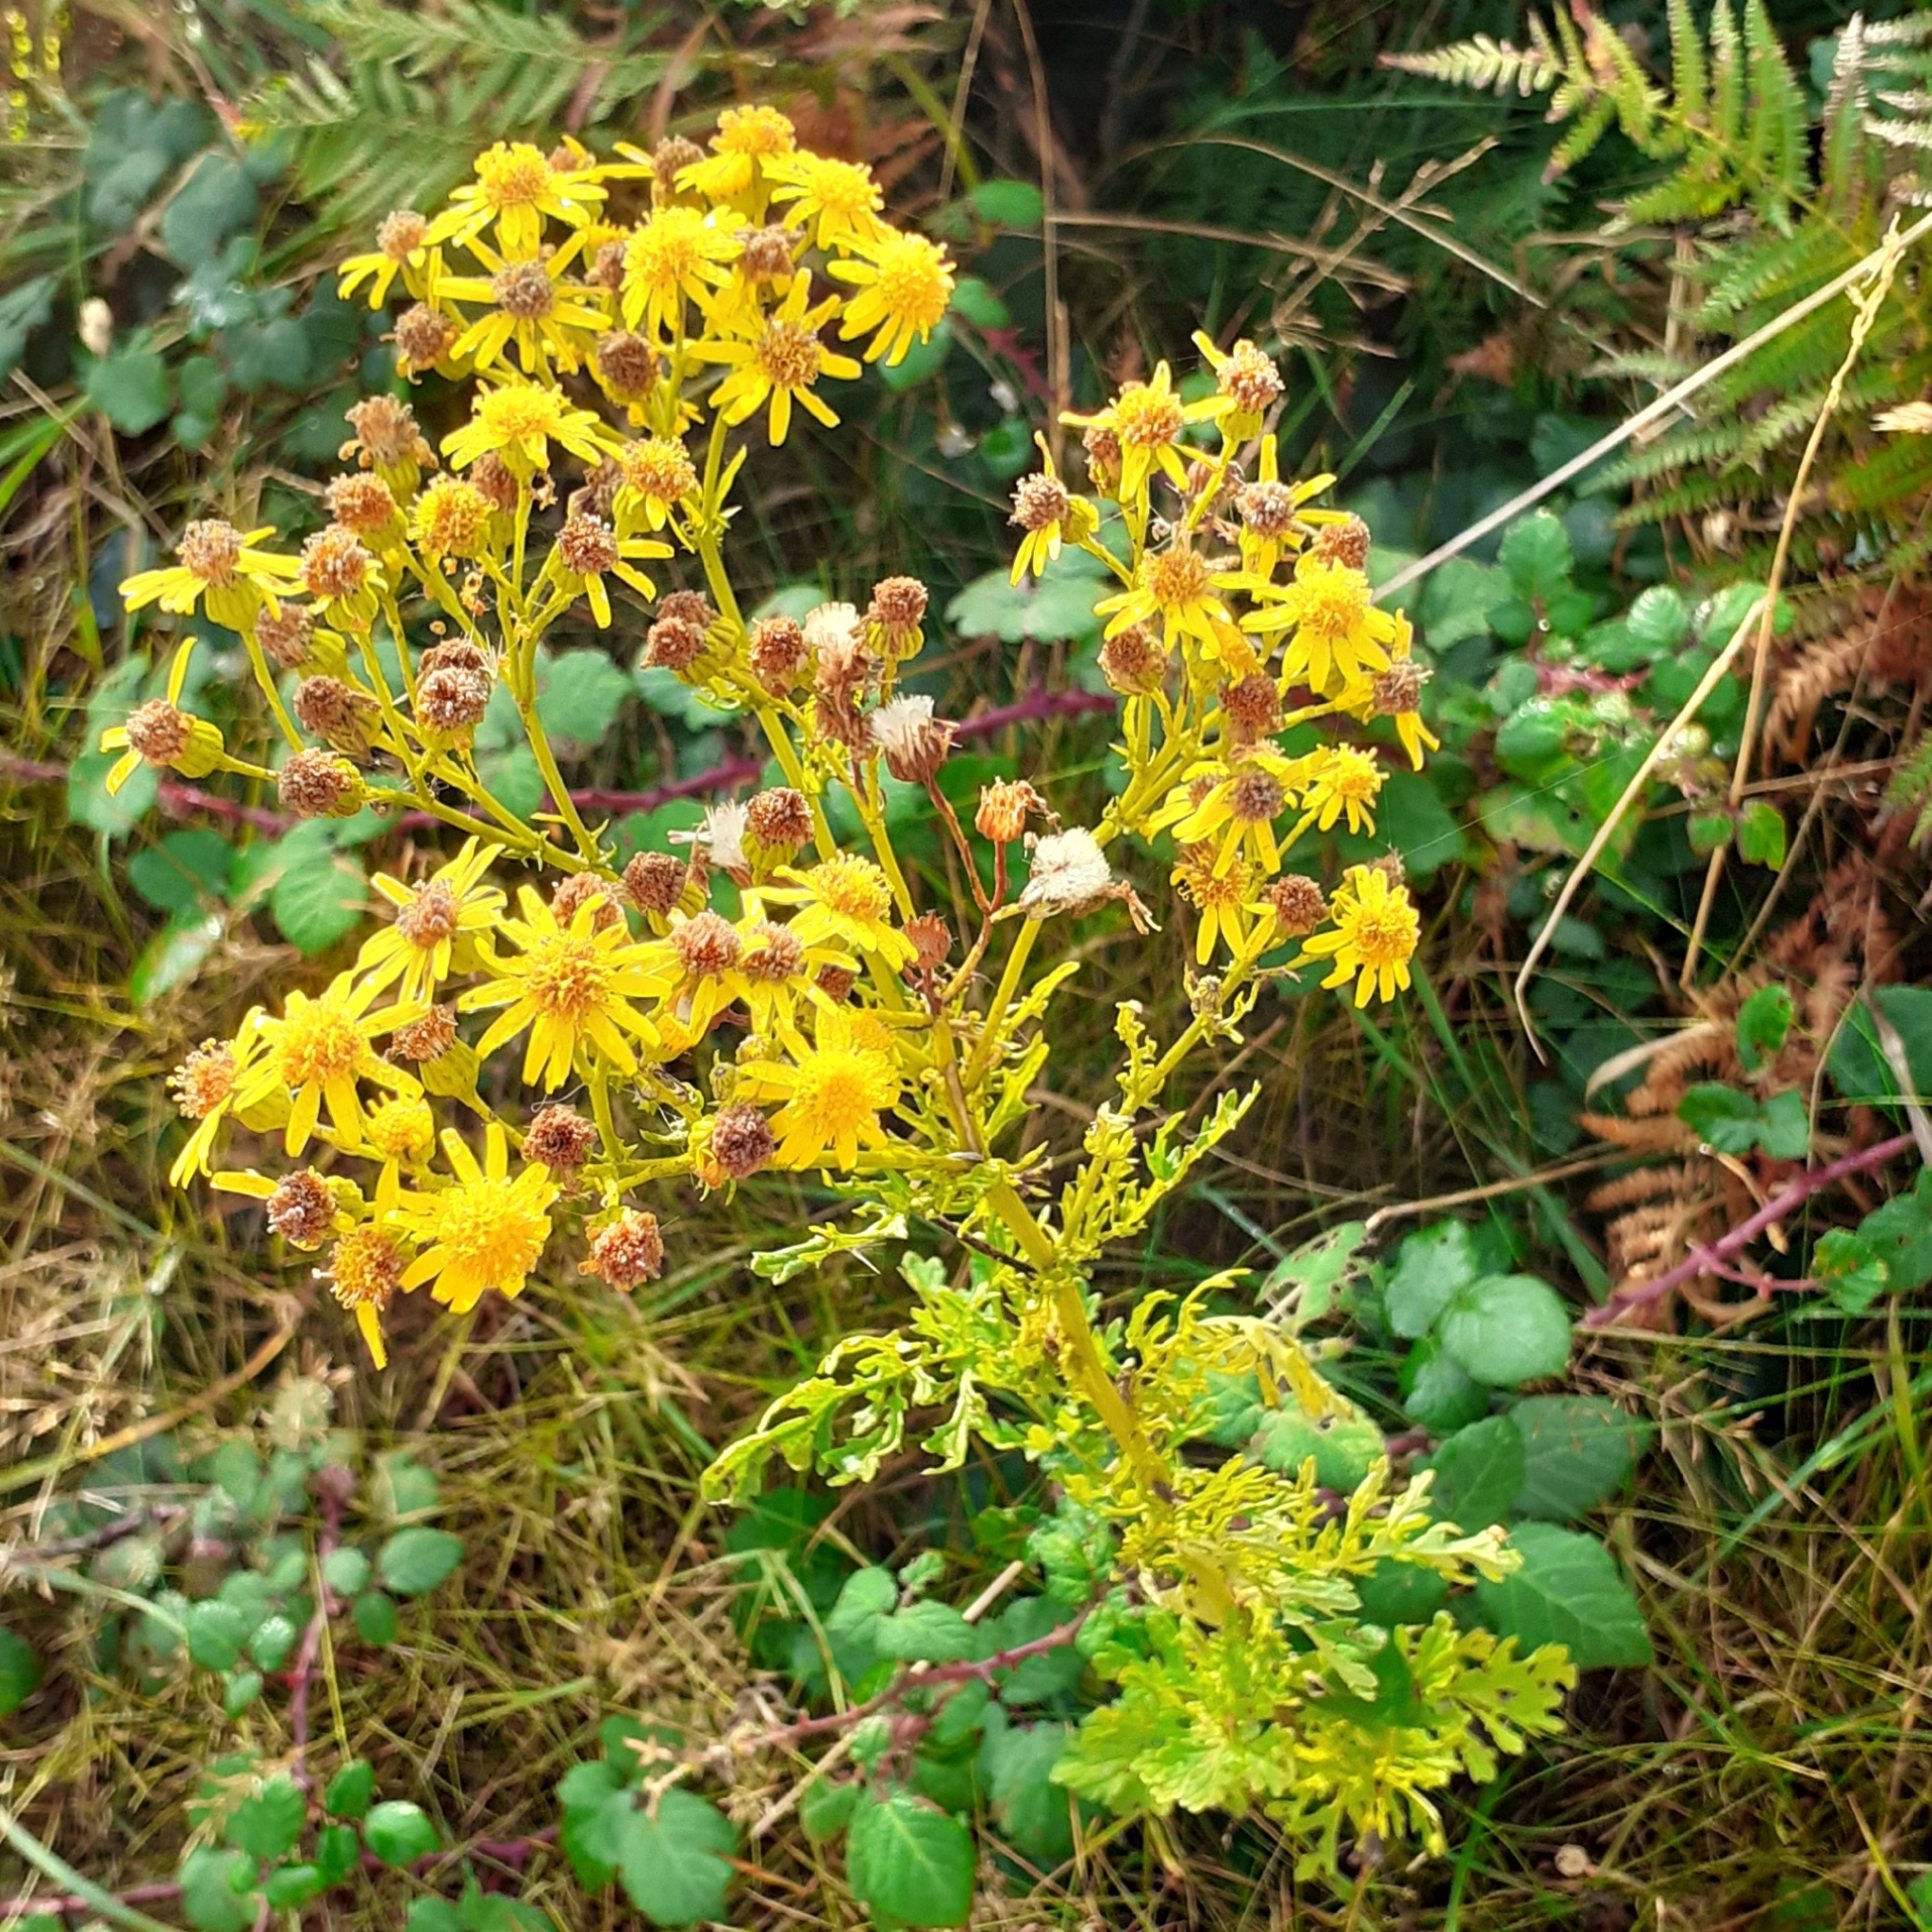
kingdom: Plantae
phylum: Tracheophyta
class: Magnoliopsida
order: Asterales
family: Asteraceae
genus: Jacobaea
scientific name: Jacobaea vulgaris
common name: Stinking willie
